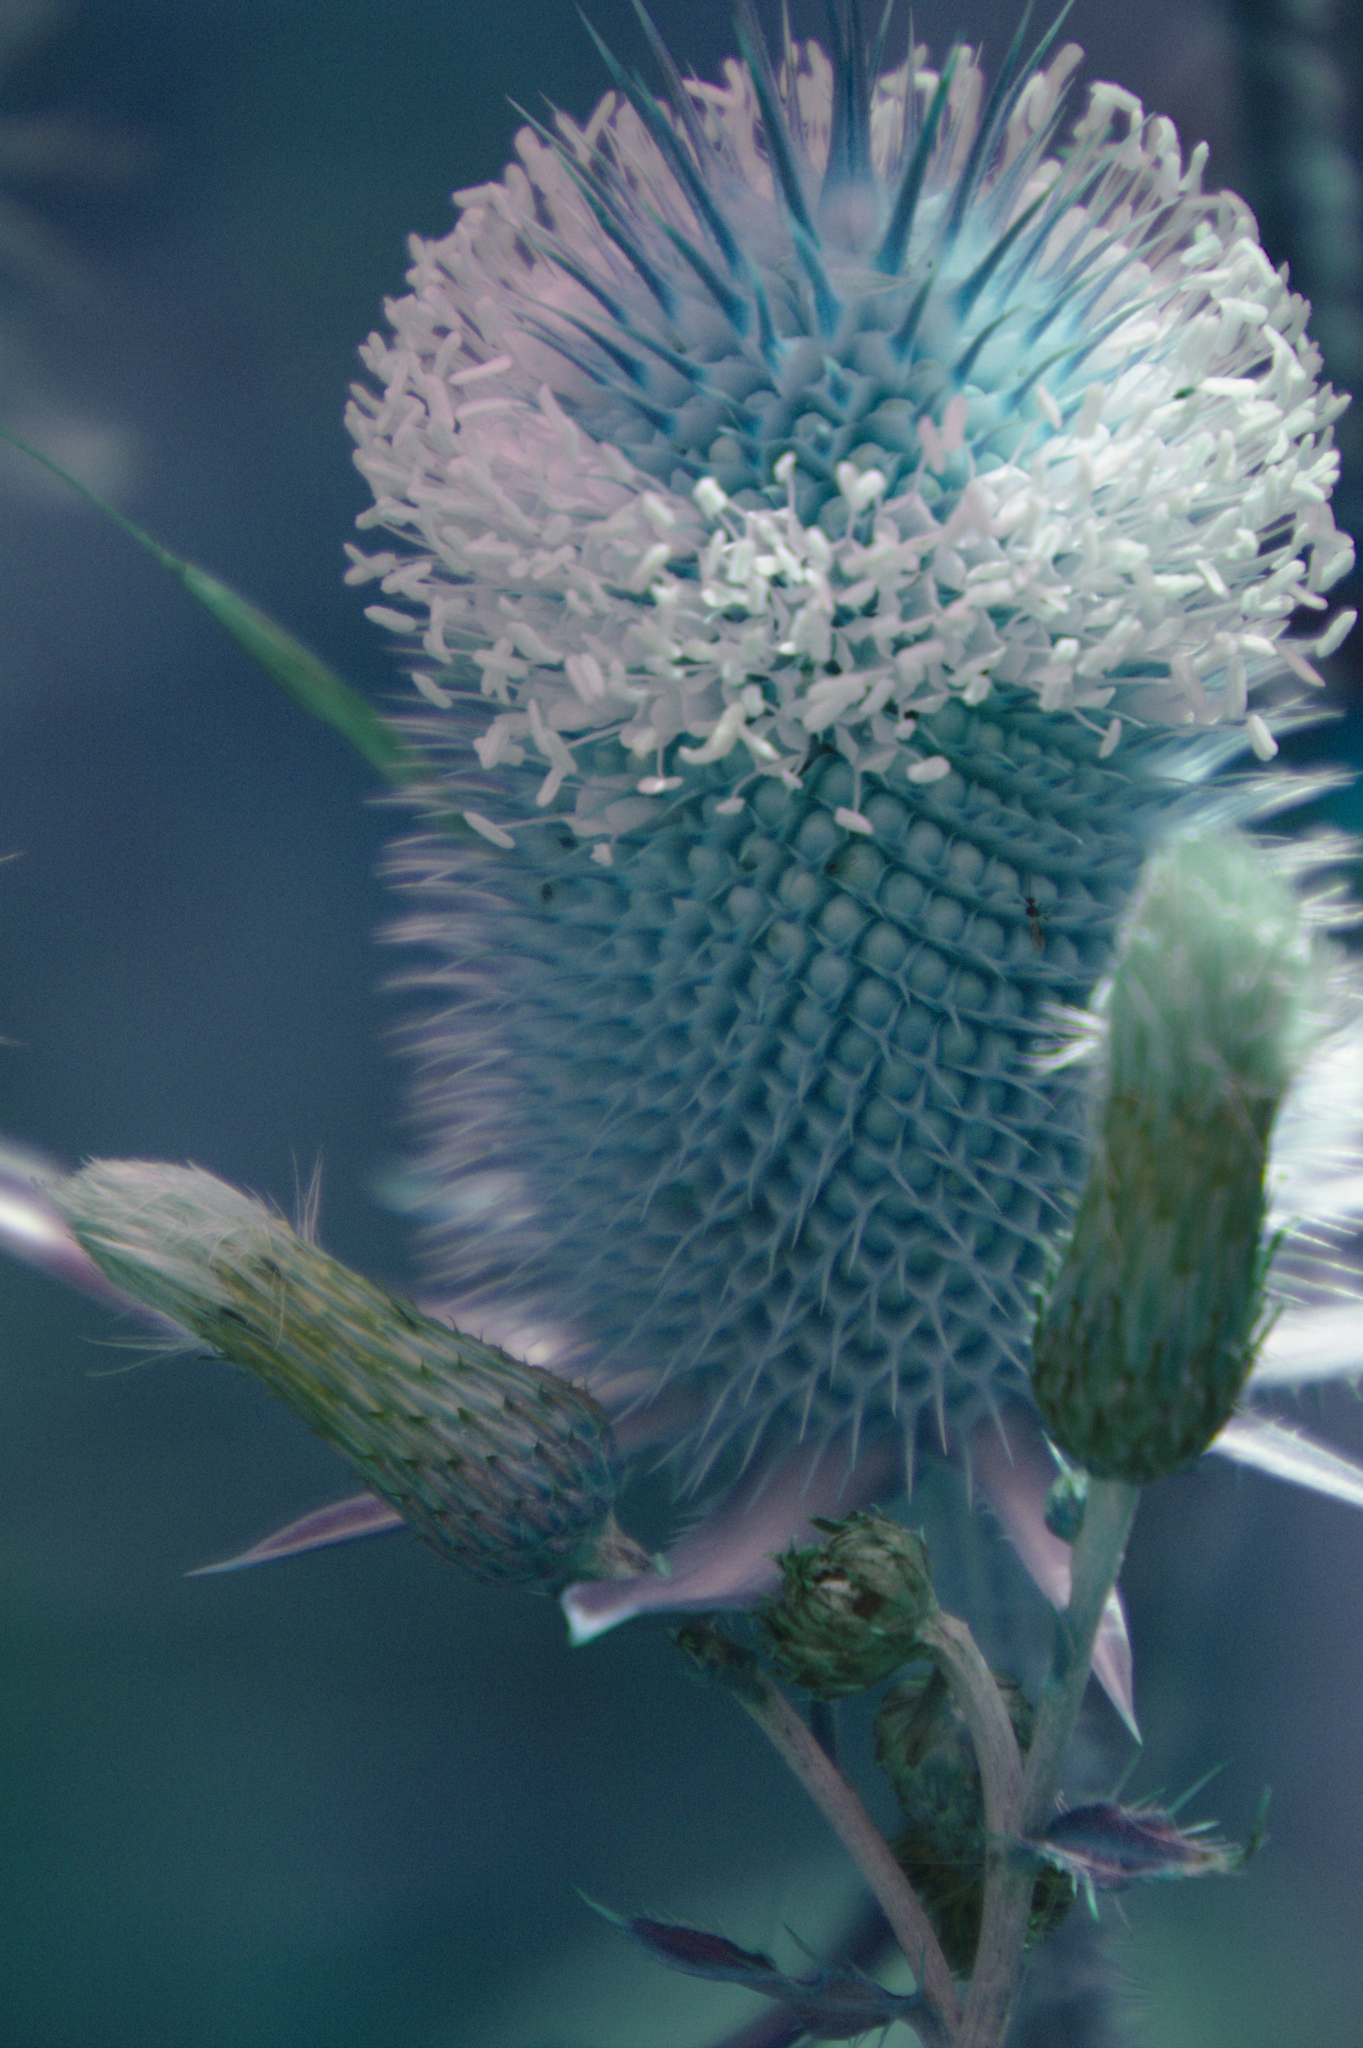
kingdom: Plantae
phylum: Tracheophyta
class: Magnoliopsida
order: Dipsacales
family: Caprifoliaceae
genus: Dipsacus
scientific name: Dipsacus laciniatus
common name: Cut-leaved teasel
